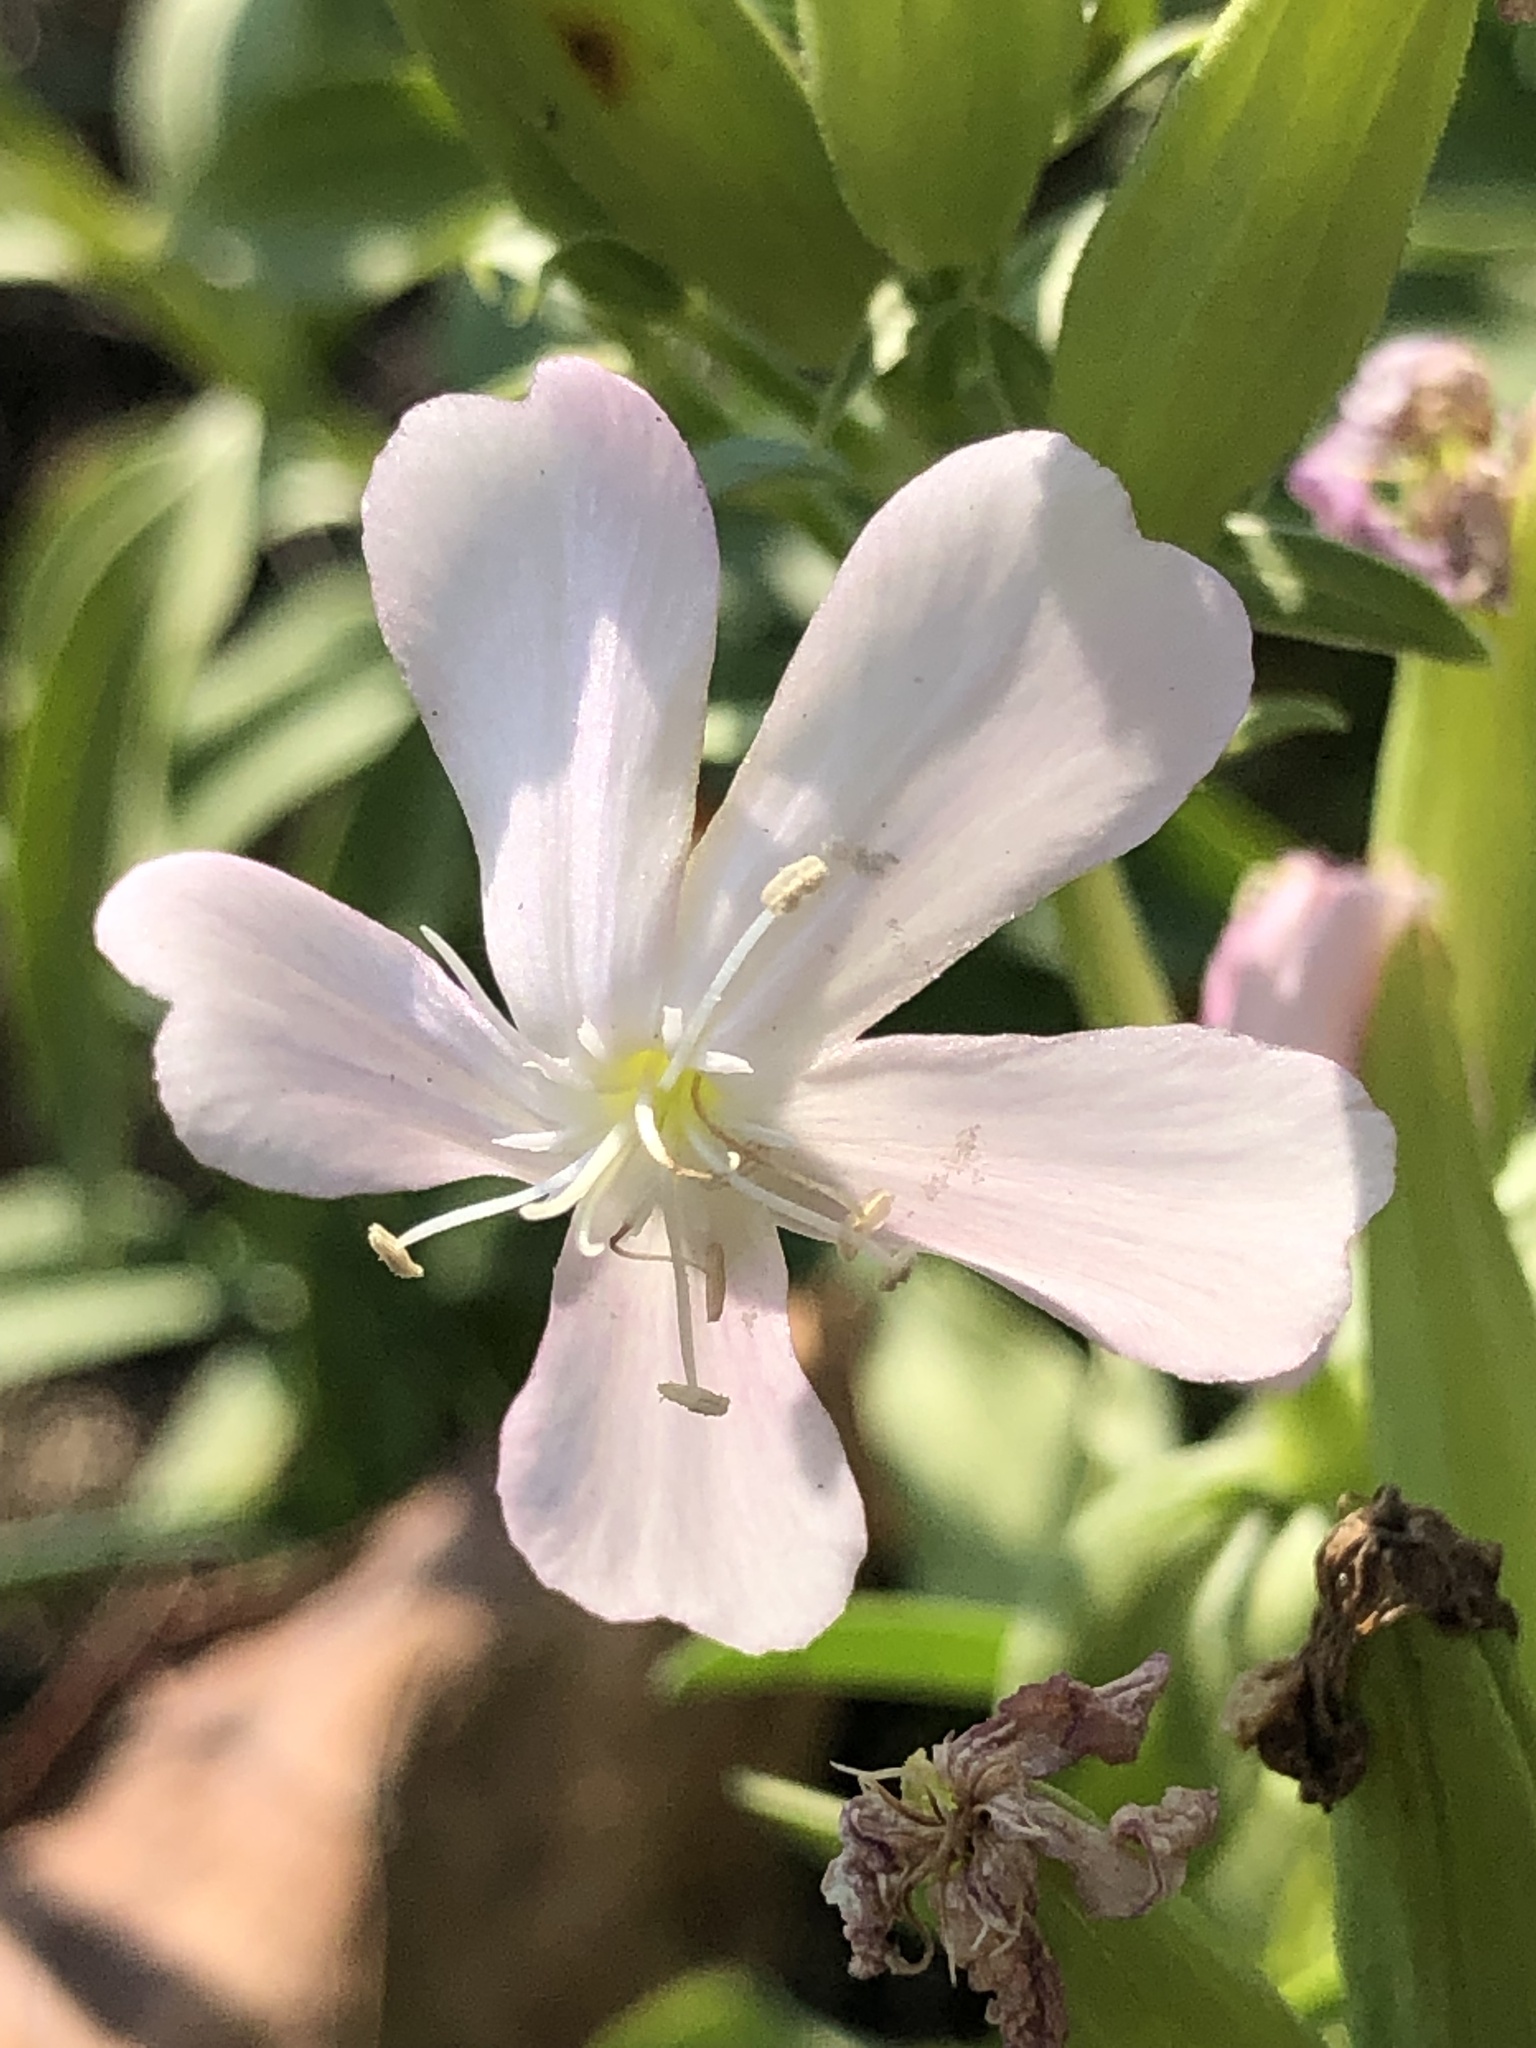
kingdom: Plantae
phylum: Tracheophyta
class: Magnoliopsida
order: Caryophyllales
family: Caryophyllaceae
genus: Saponaria
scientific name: Saponaria officinalis
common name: Soapwort
